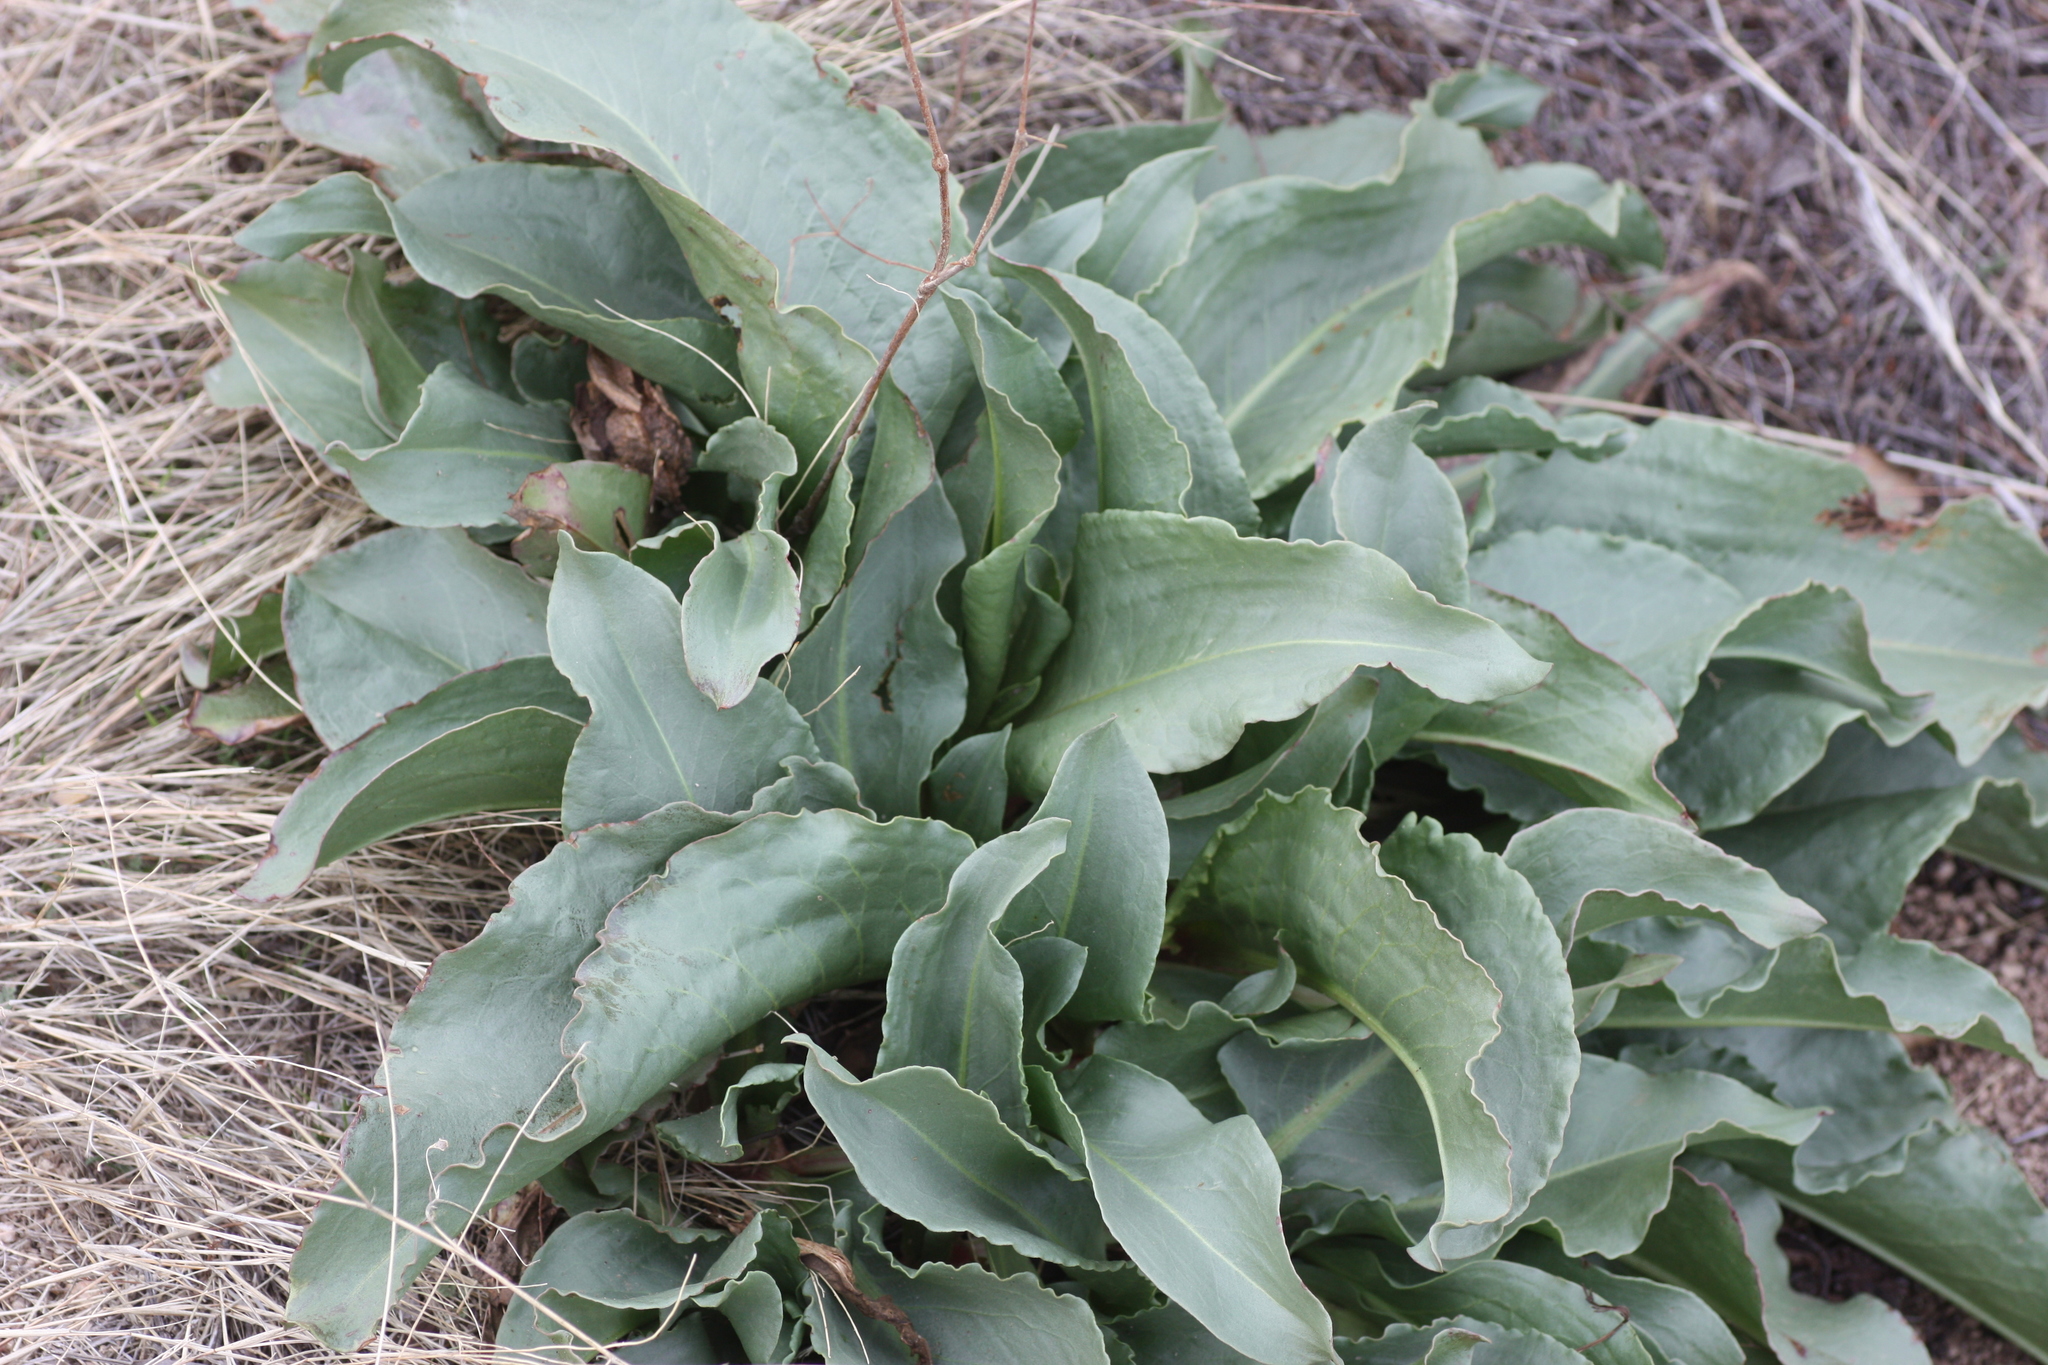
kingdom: Plantae
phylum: Tracheophyta
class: Magnoliopsida
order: Caryophyllales
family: Polygonaceae
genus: Rumex
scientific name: Rumex hymenosepalus
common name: Ganagra
